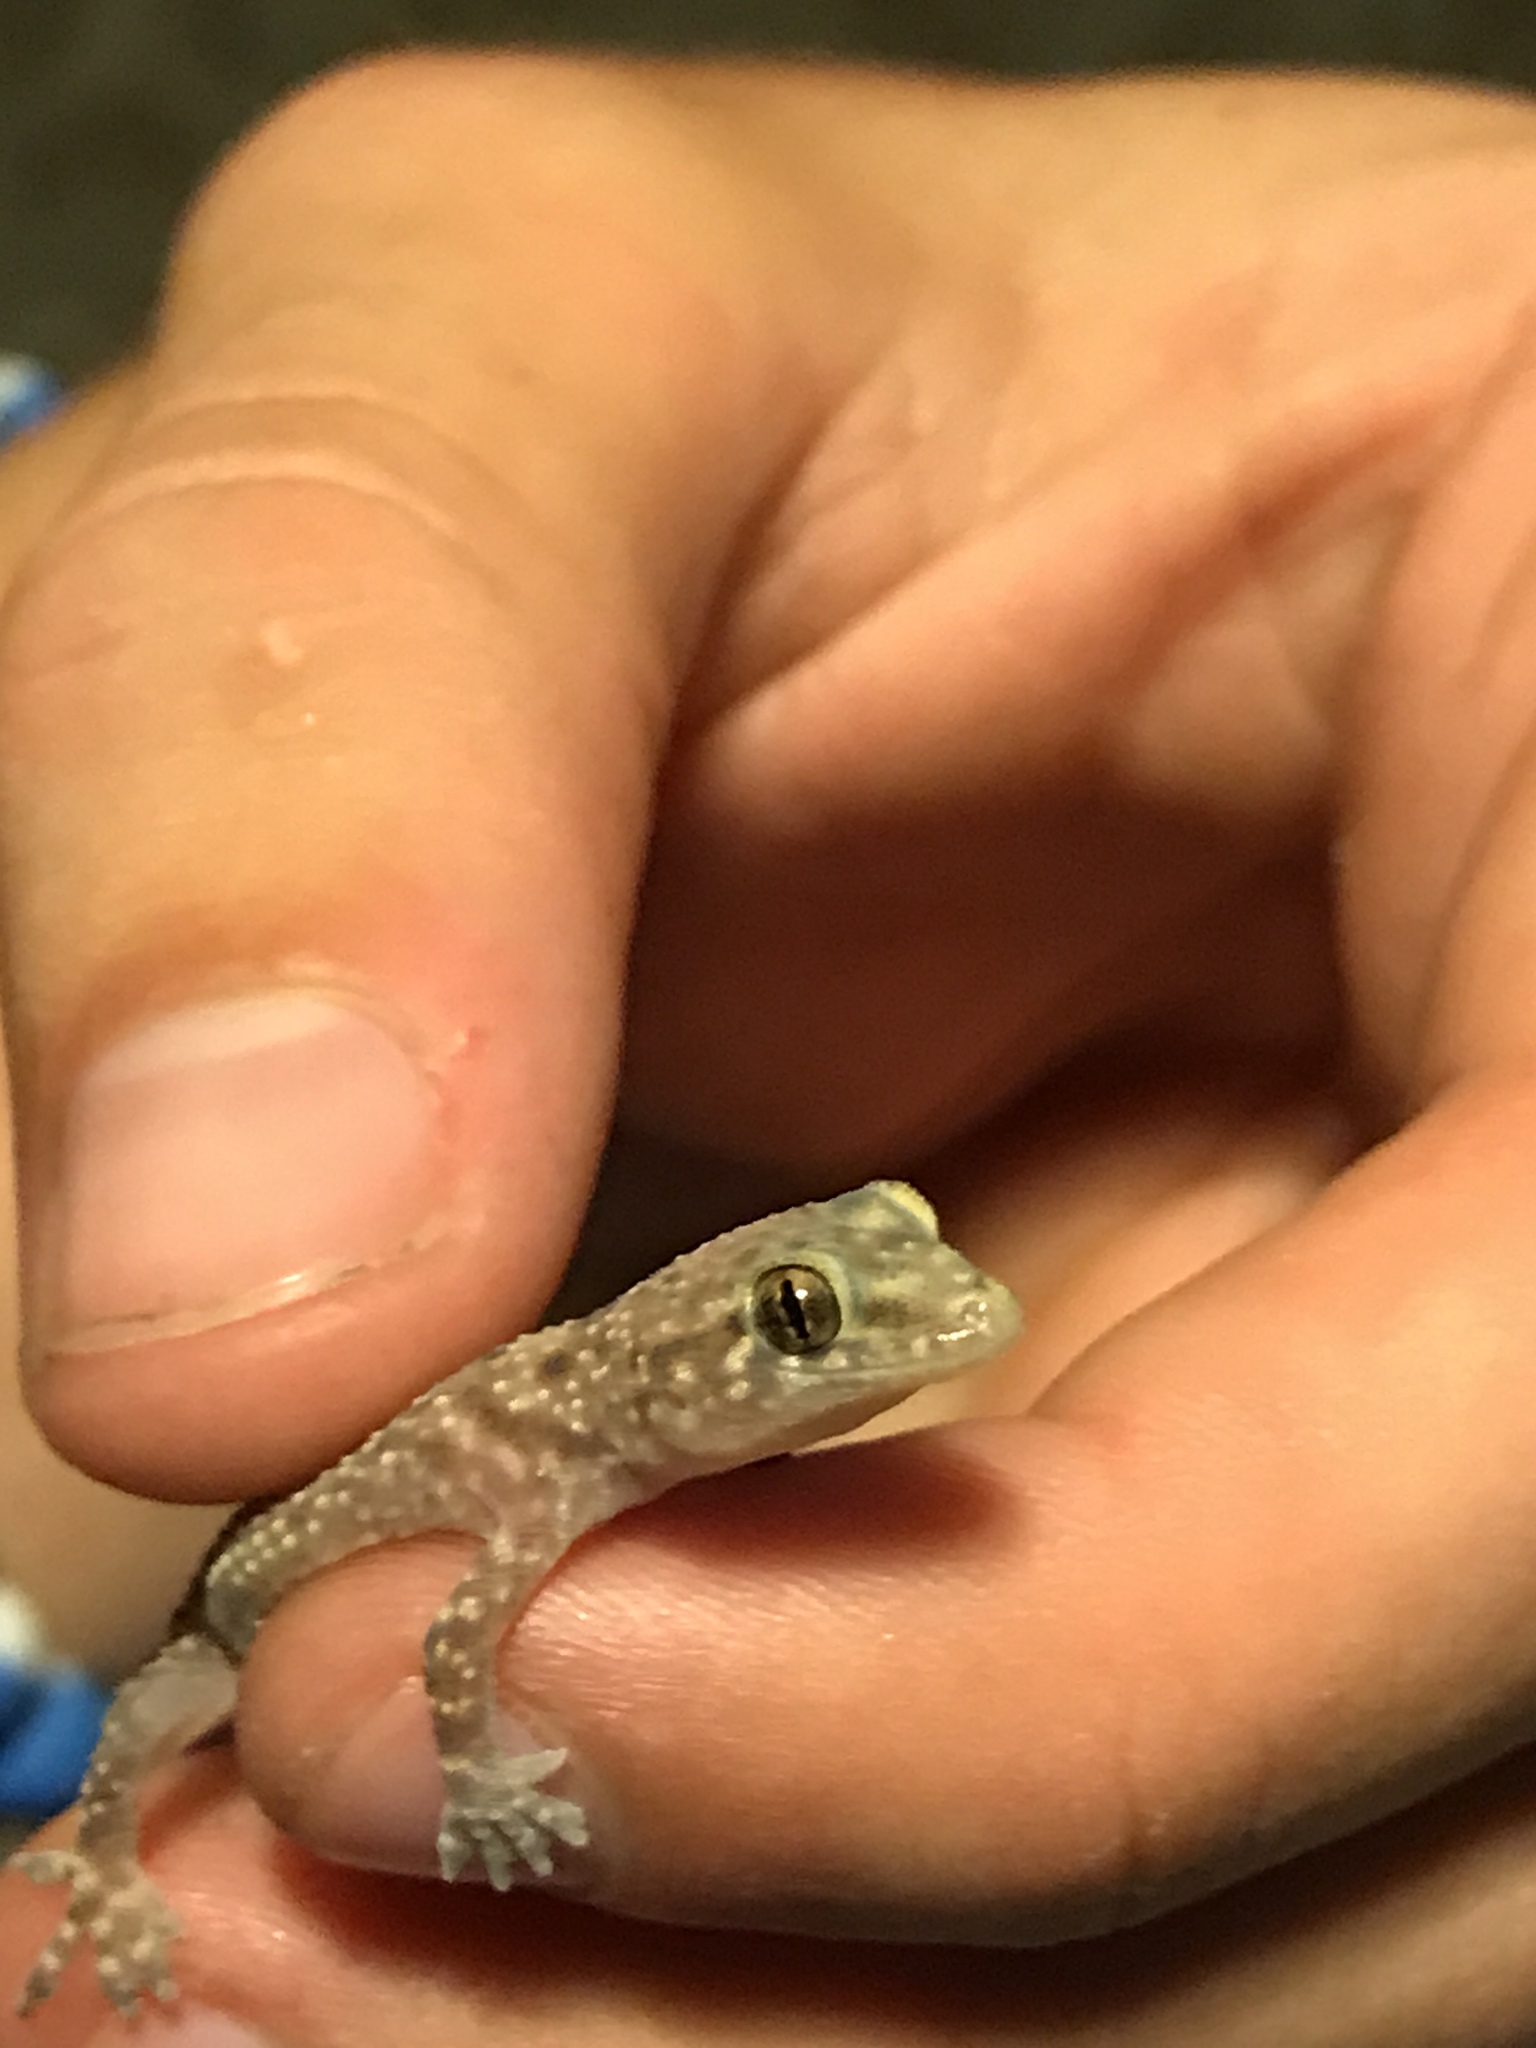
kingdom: Animalia
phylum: Chordata
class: Squamata
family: Gekkonidae
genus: Hemidactylus
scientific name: Hemidactylus turcicus
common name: Turkish gecko
